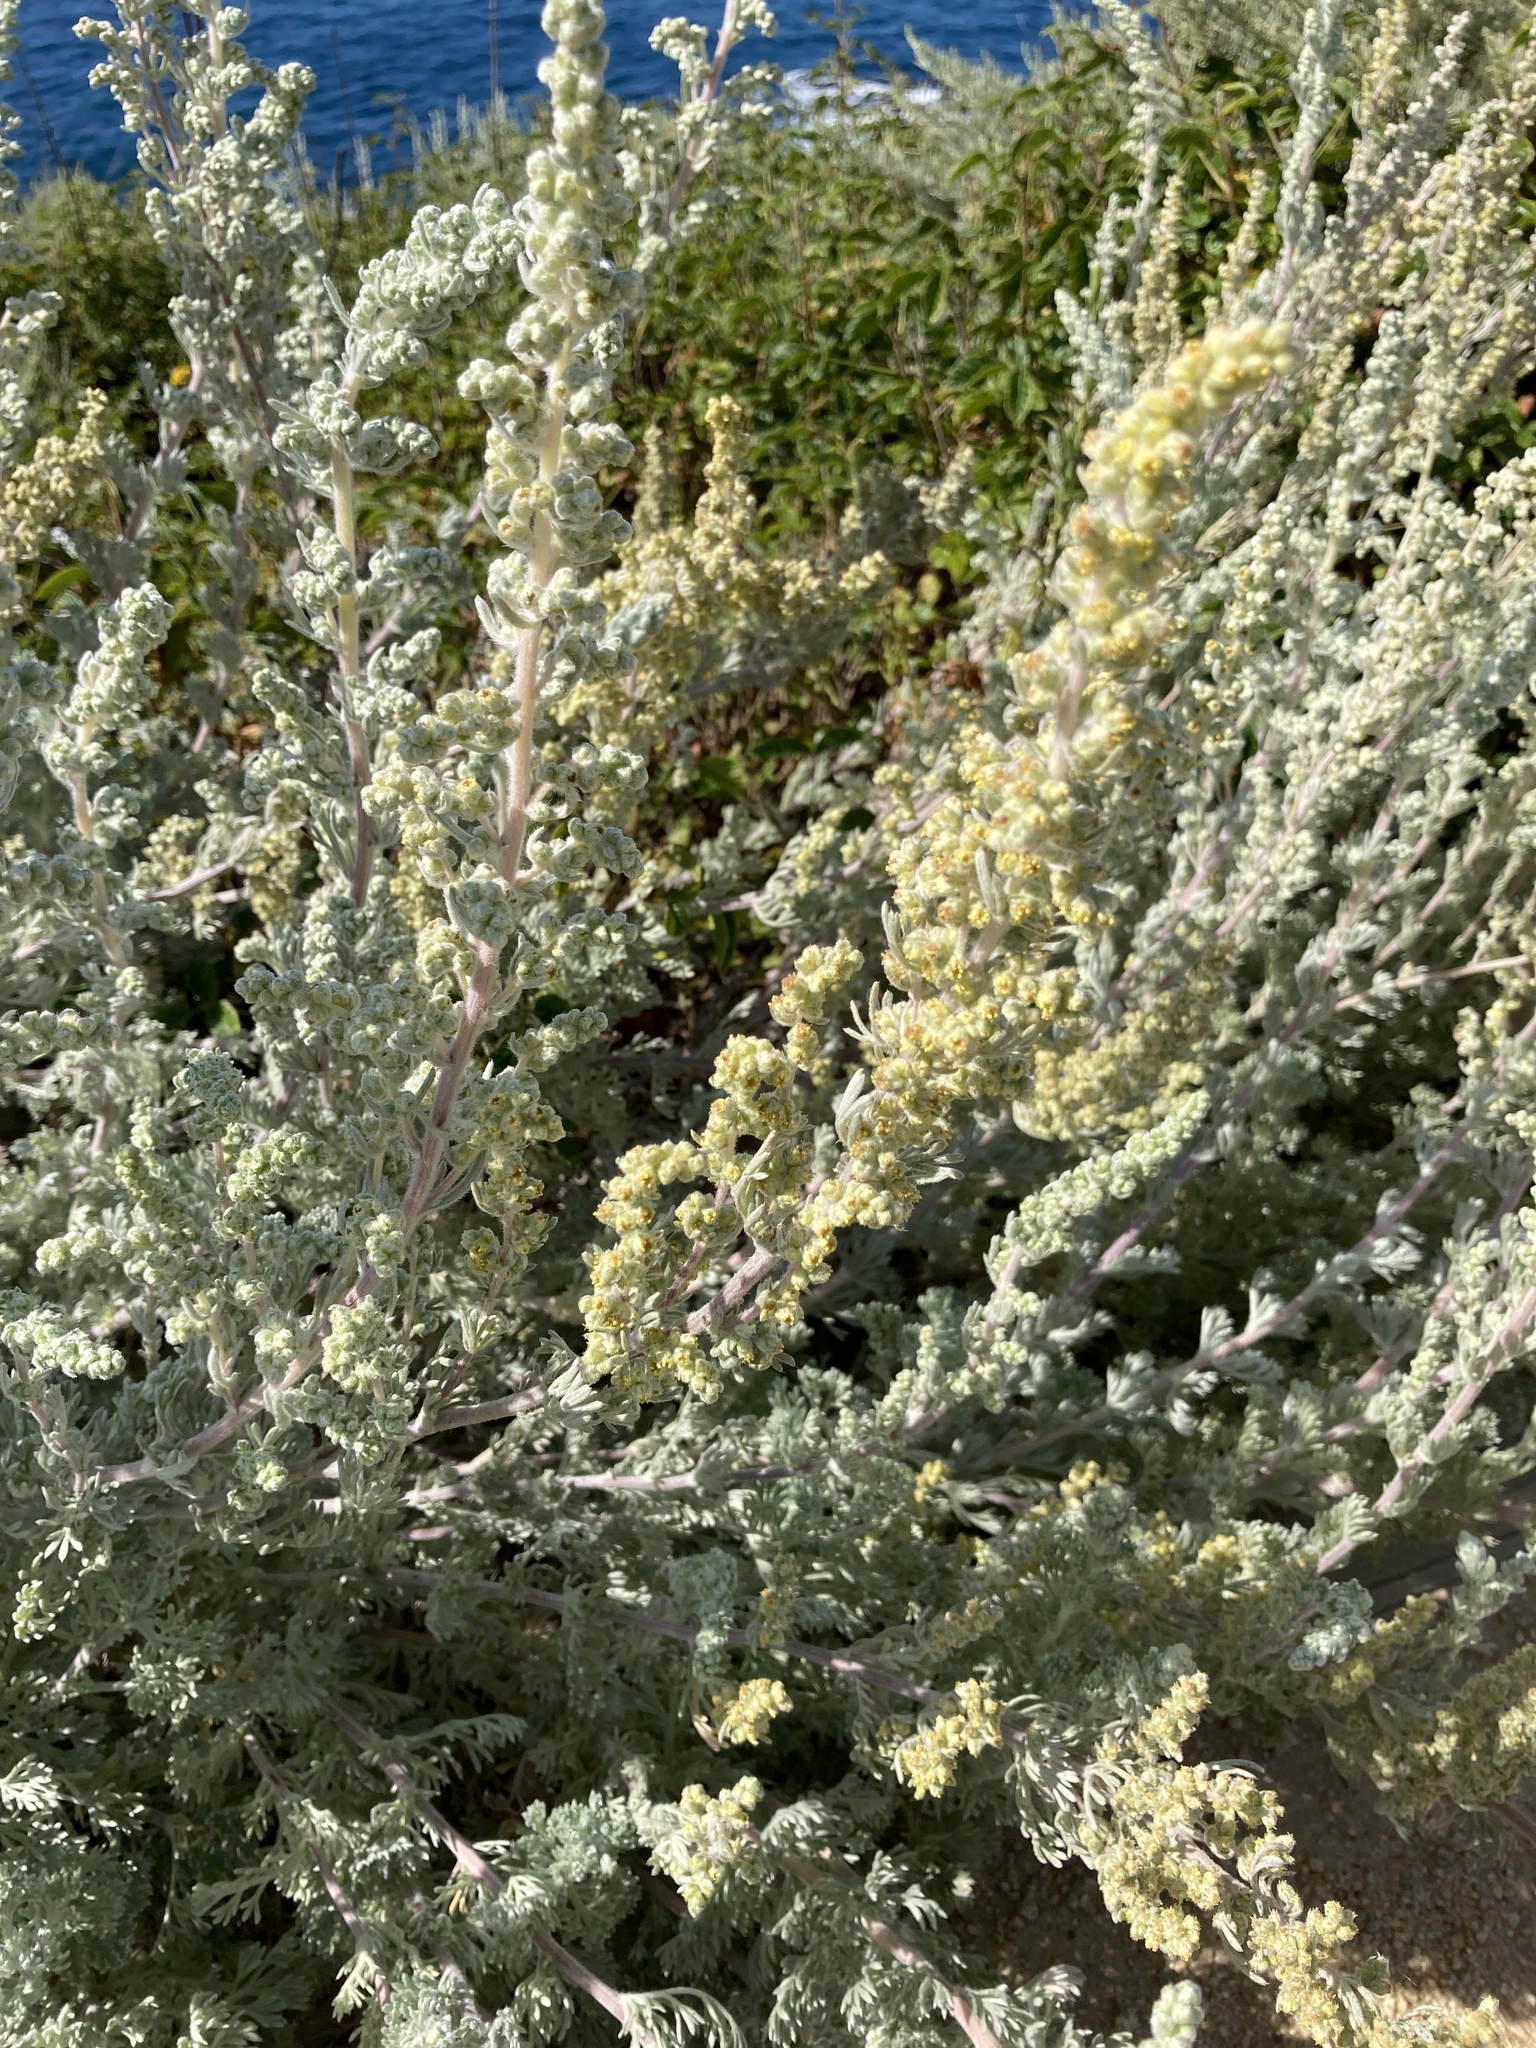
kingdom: Plantae
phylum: Tracheophyta
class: Magnoliopsida
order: Asterales
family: Asteraceae
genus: Artemisia
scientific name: Artemisia pycnocephala
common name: Coastal sagewort
